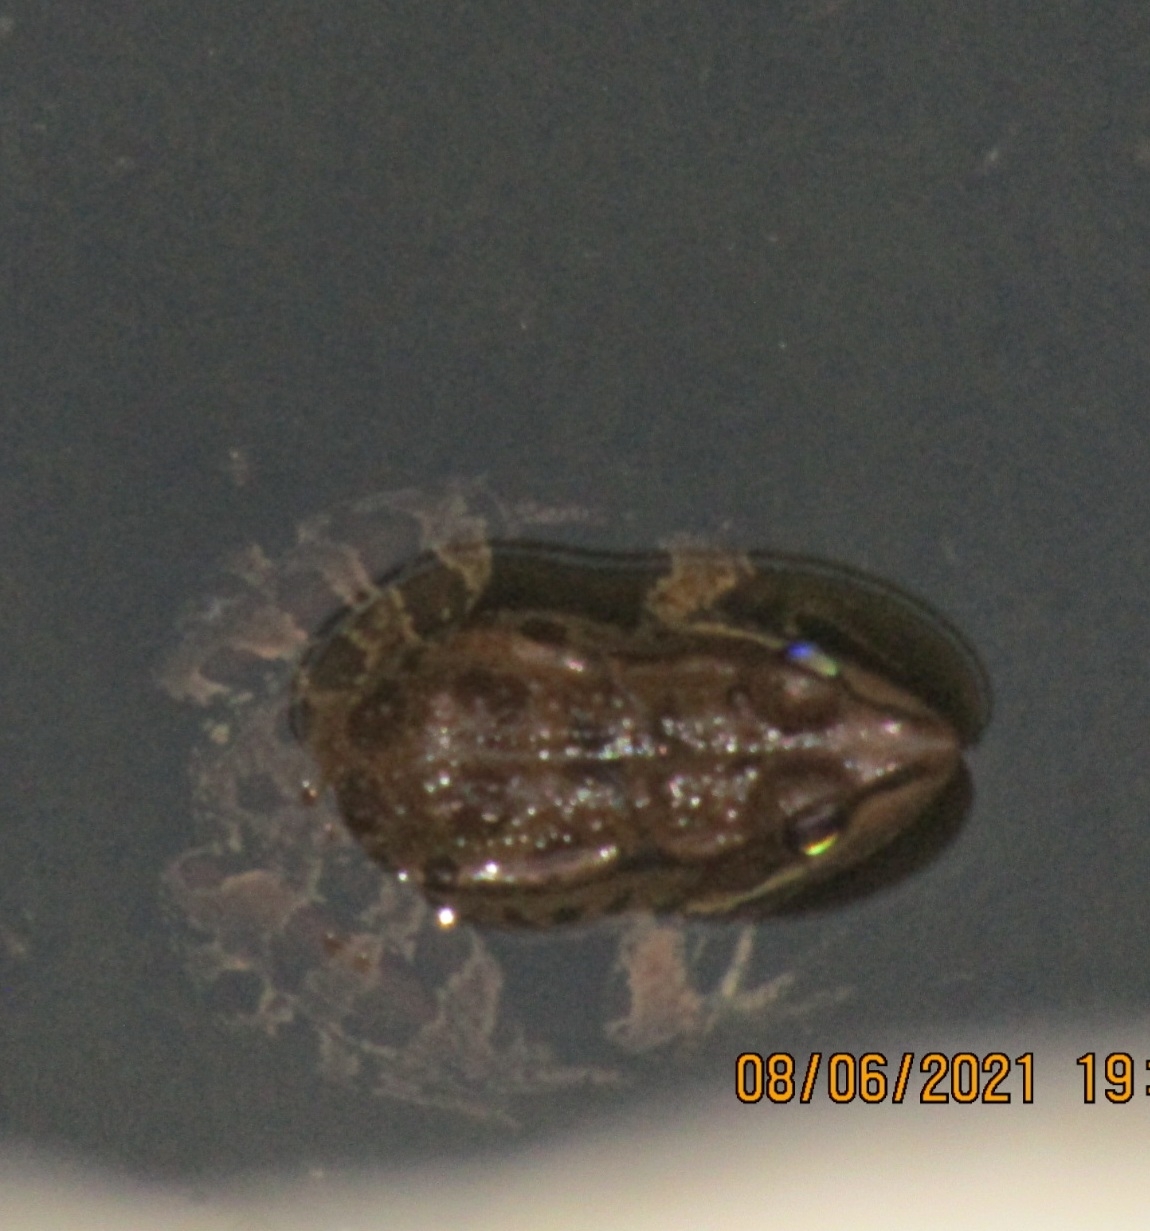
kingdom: Animalia
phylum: Chordata
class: Amphibia
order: Anura
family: Ranidae
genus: Pelophylax
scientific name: Pelophylax ridibundus
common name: Marsh frog
